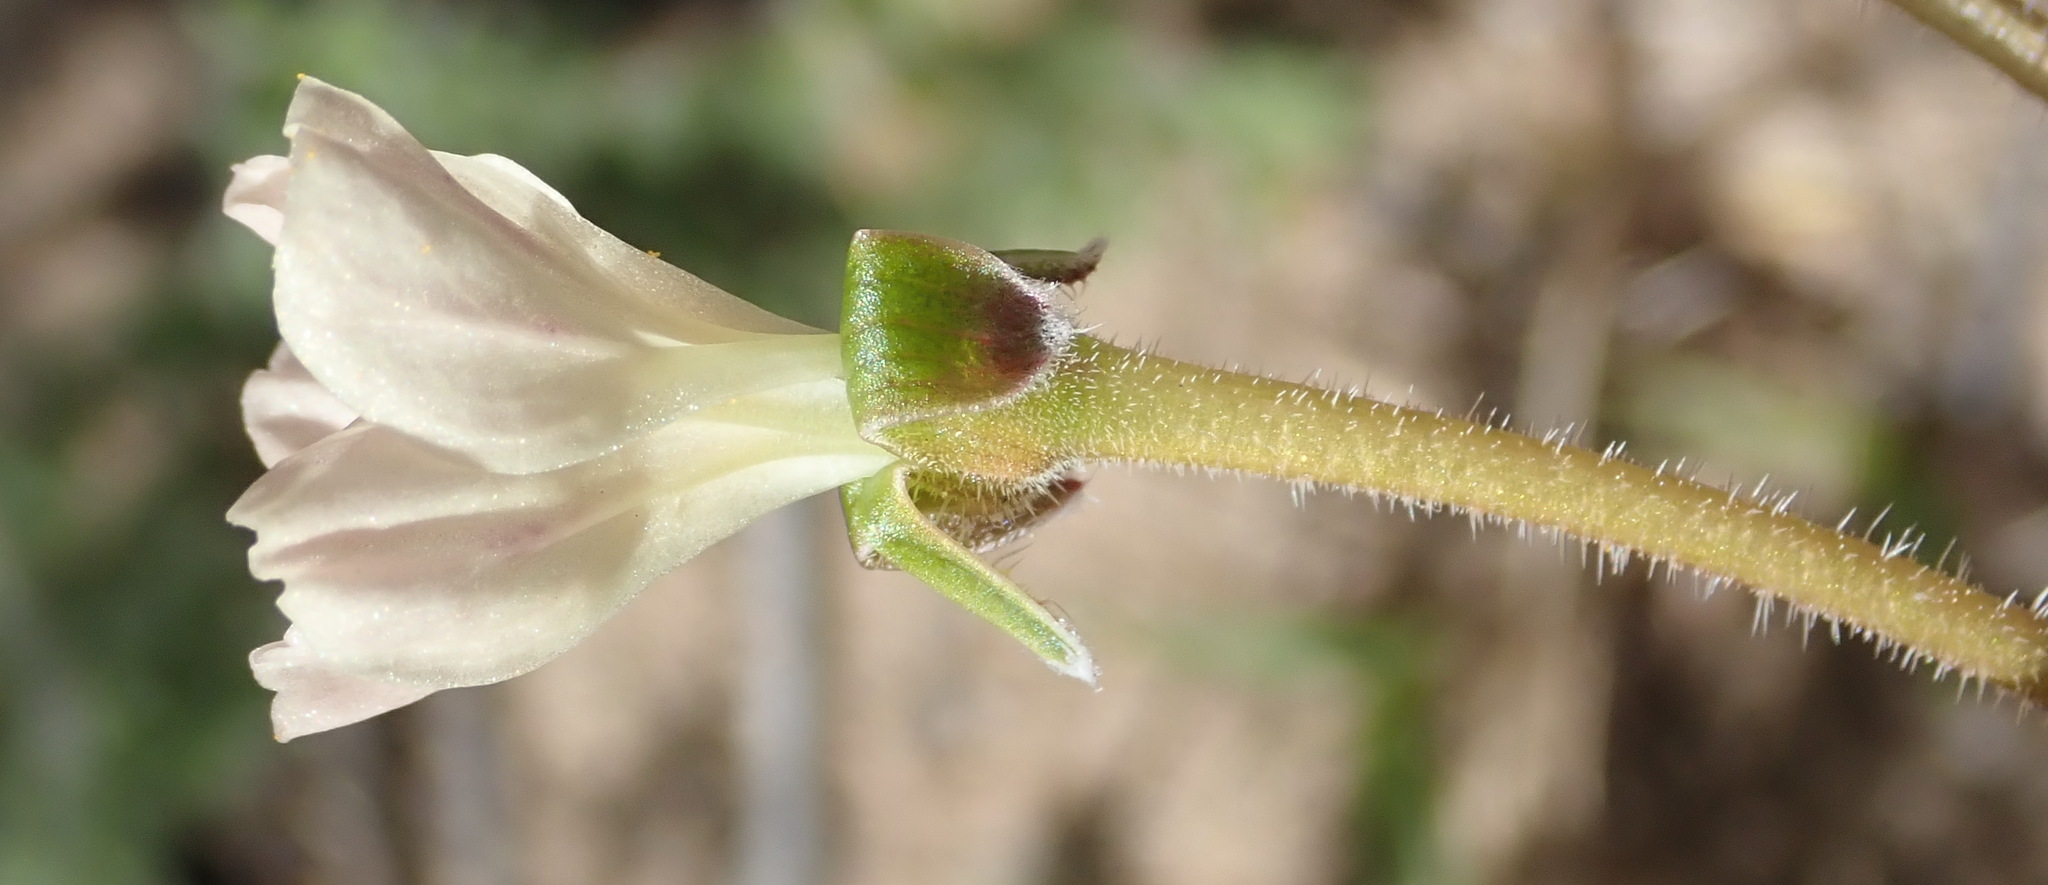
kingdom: Plantae
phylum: Tracheophyta
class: Magnoliopsida
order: Geraniales
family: Geraniaceae
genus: Pelargonium
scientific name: Pelargonium triste
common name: Night-scent pelargonium
